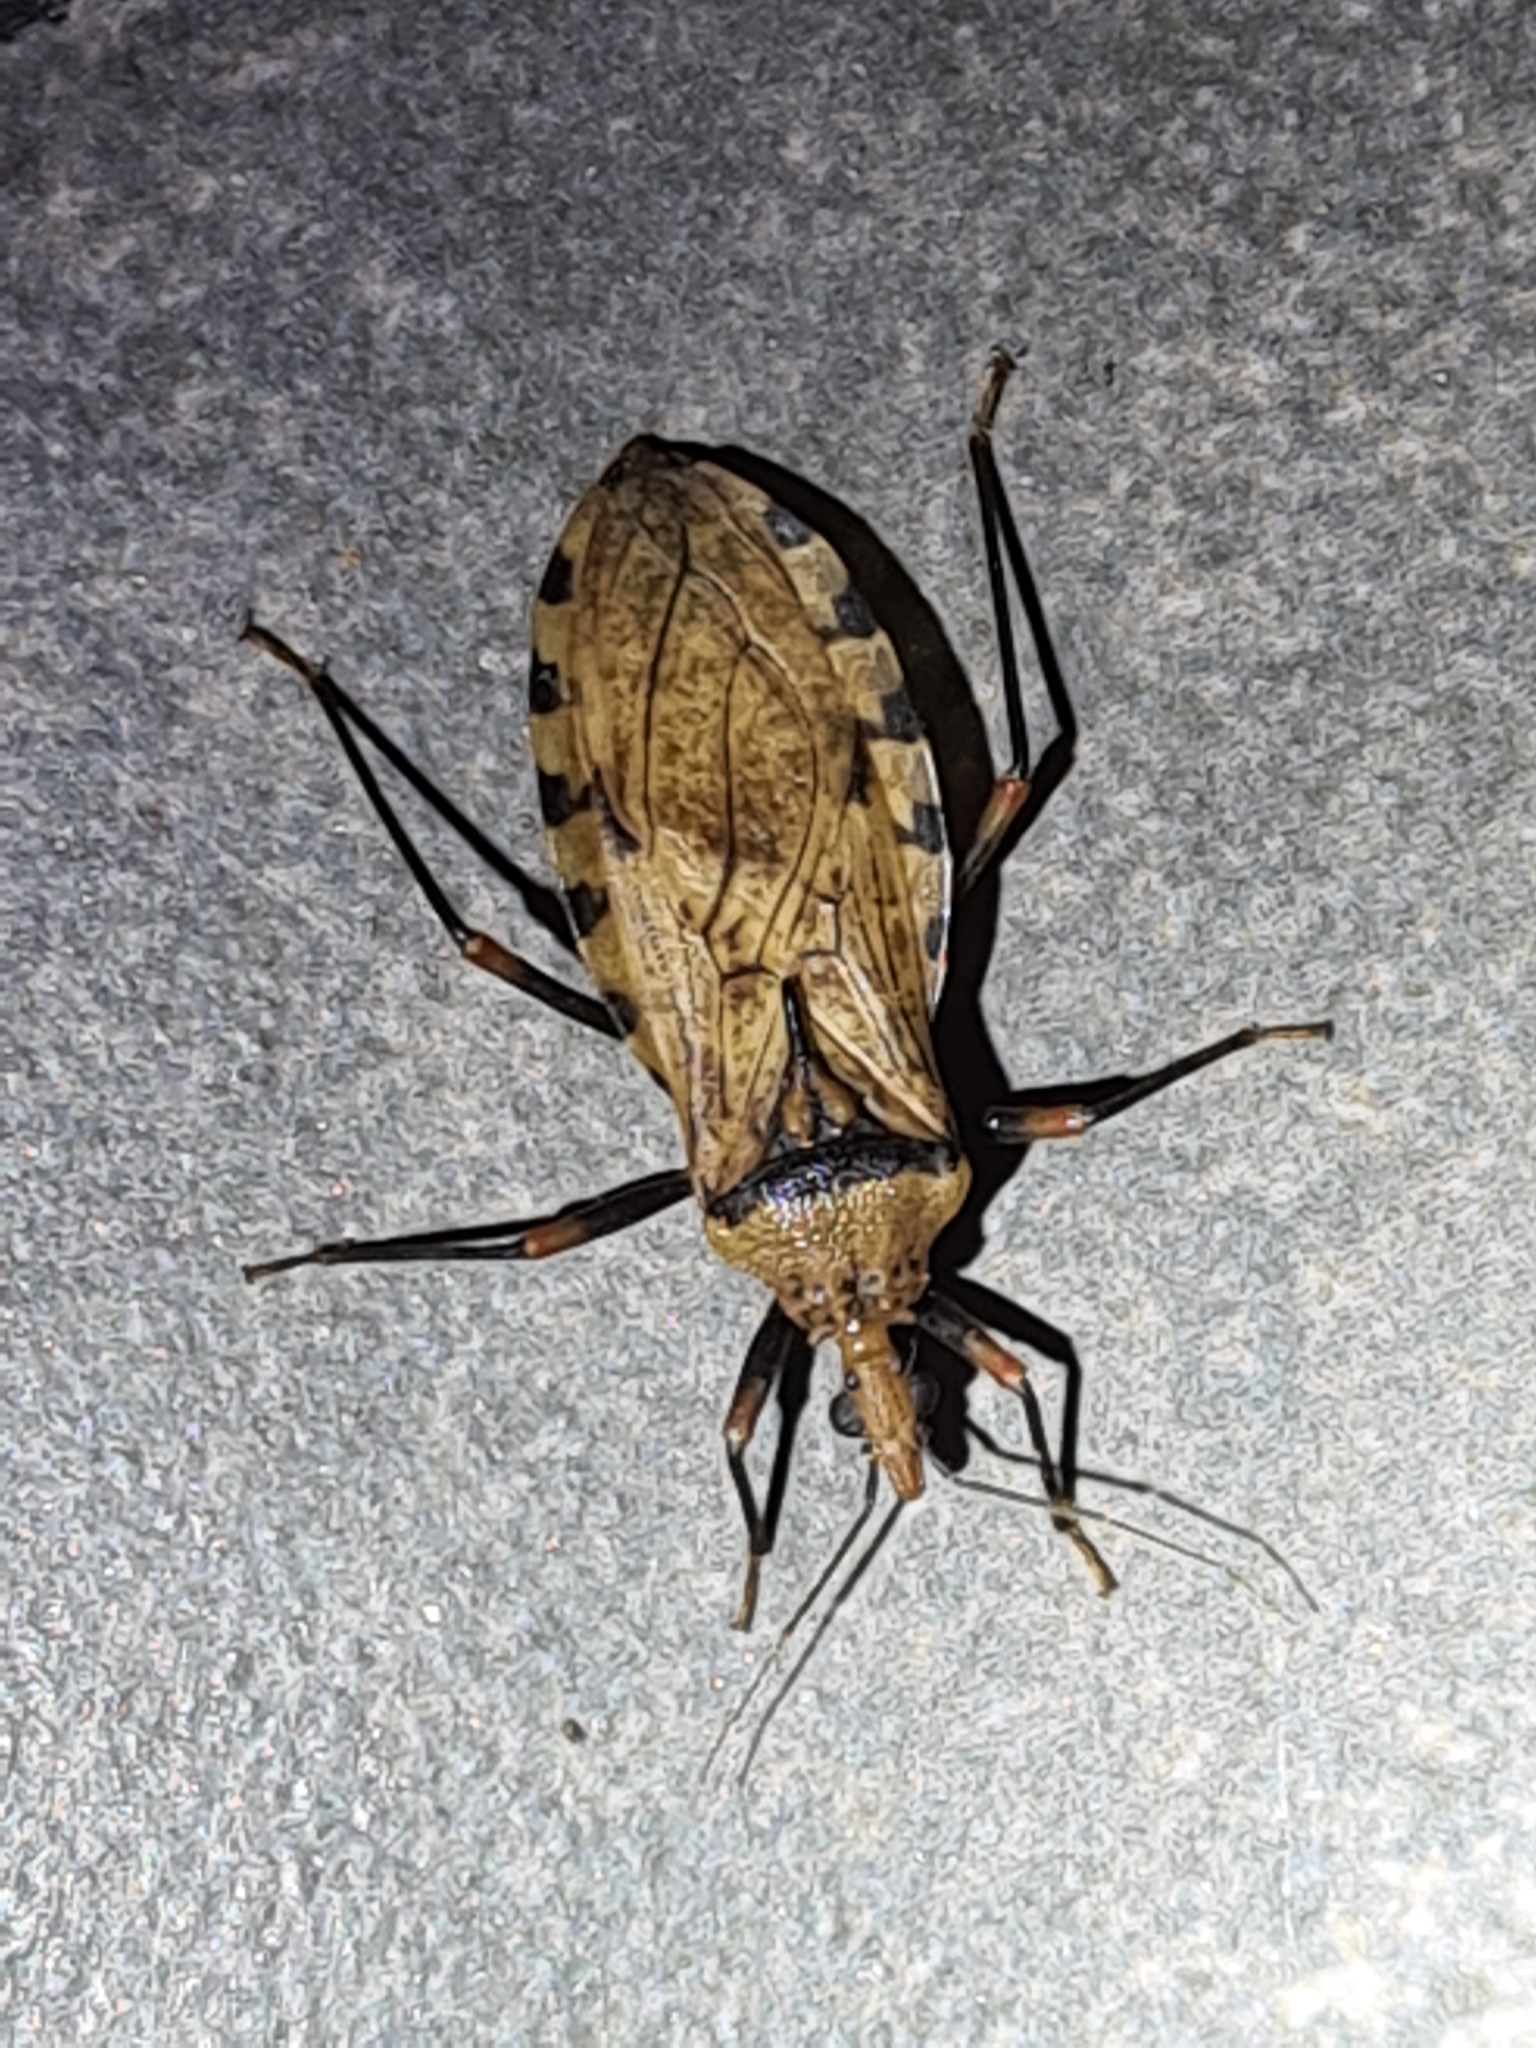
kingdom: Animalia
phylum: Arthropoda
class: Insecta
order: Hemiptera
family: Reduviidae
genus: Panstrongylus
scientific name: Panstrongylus geniculatus
